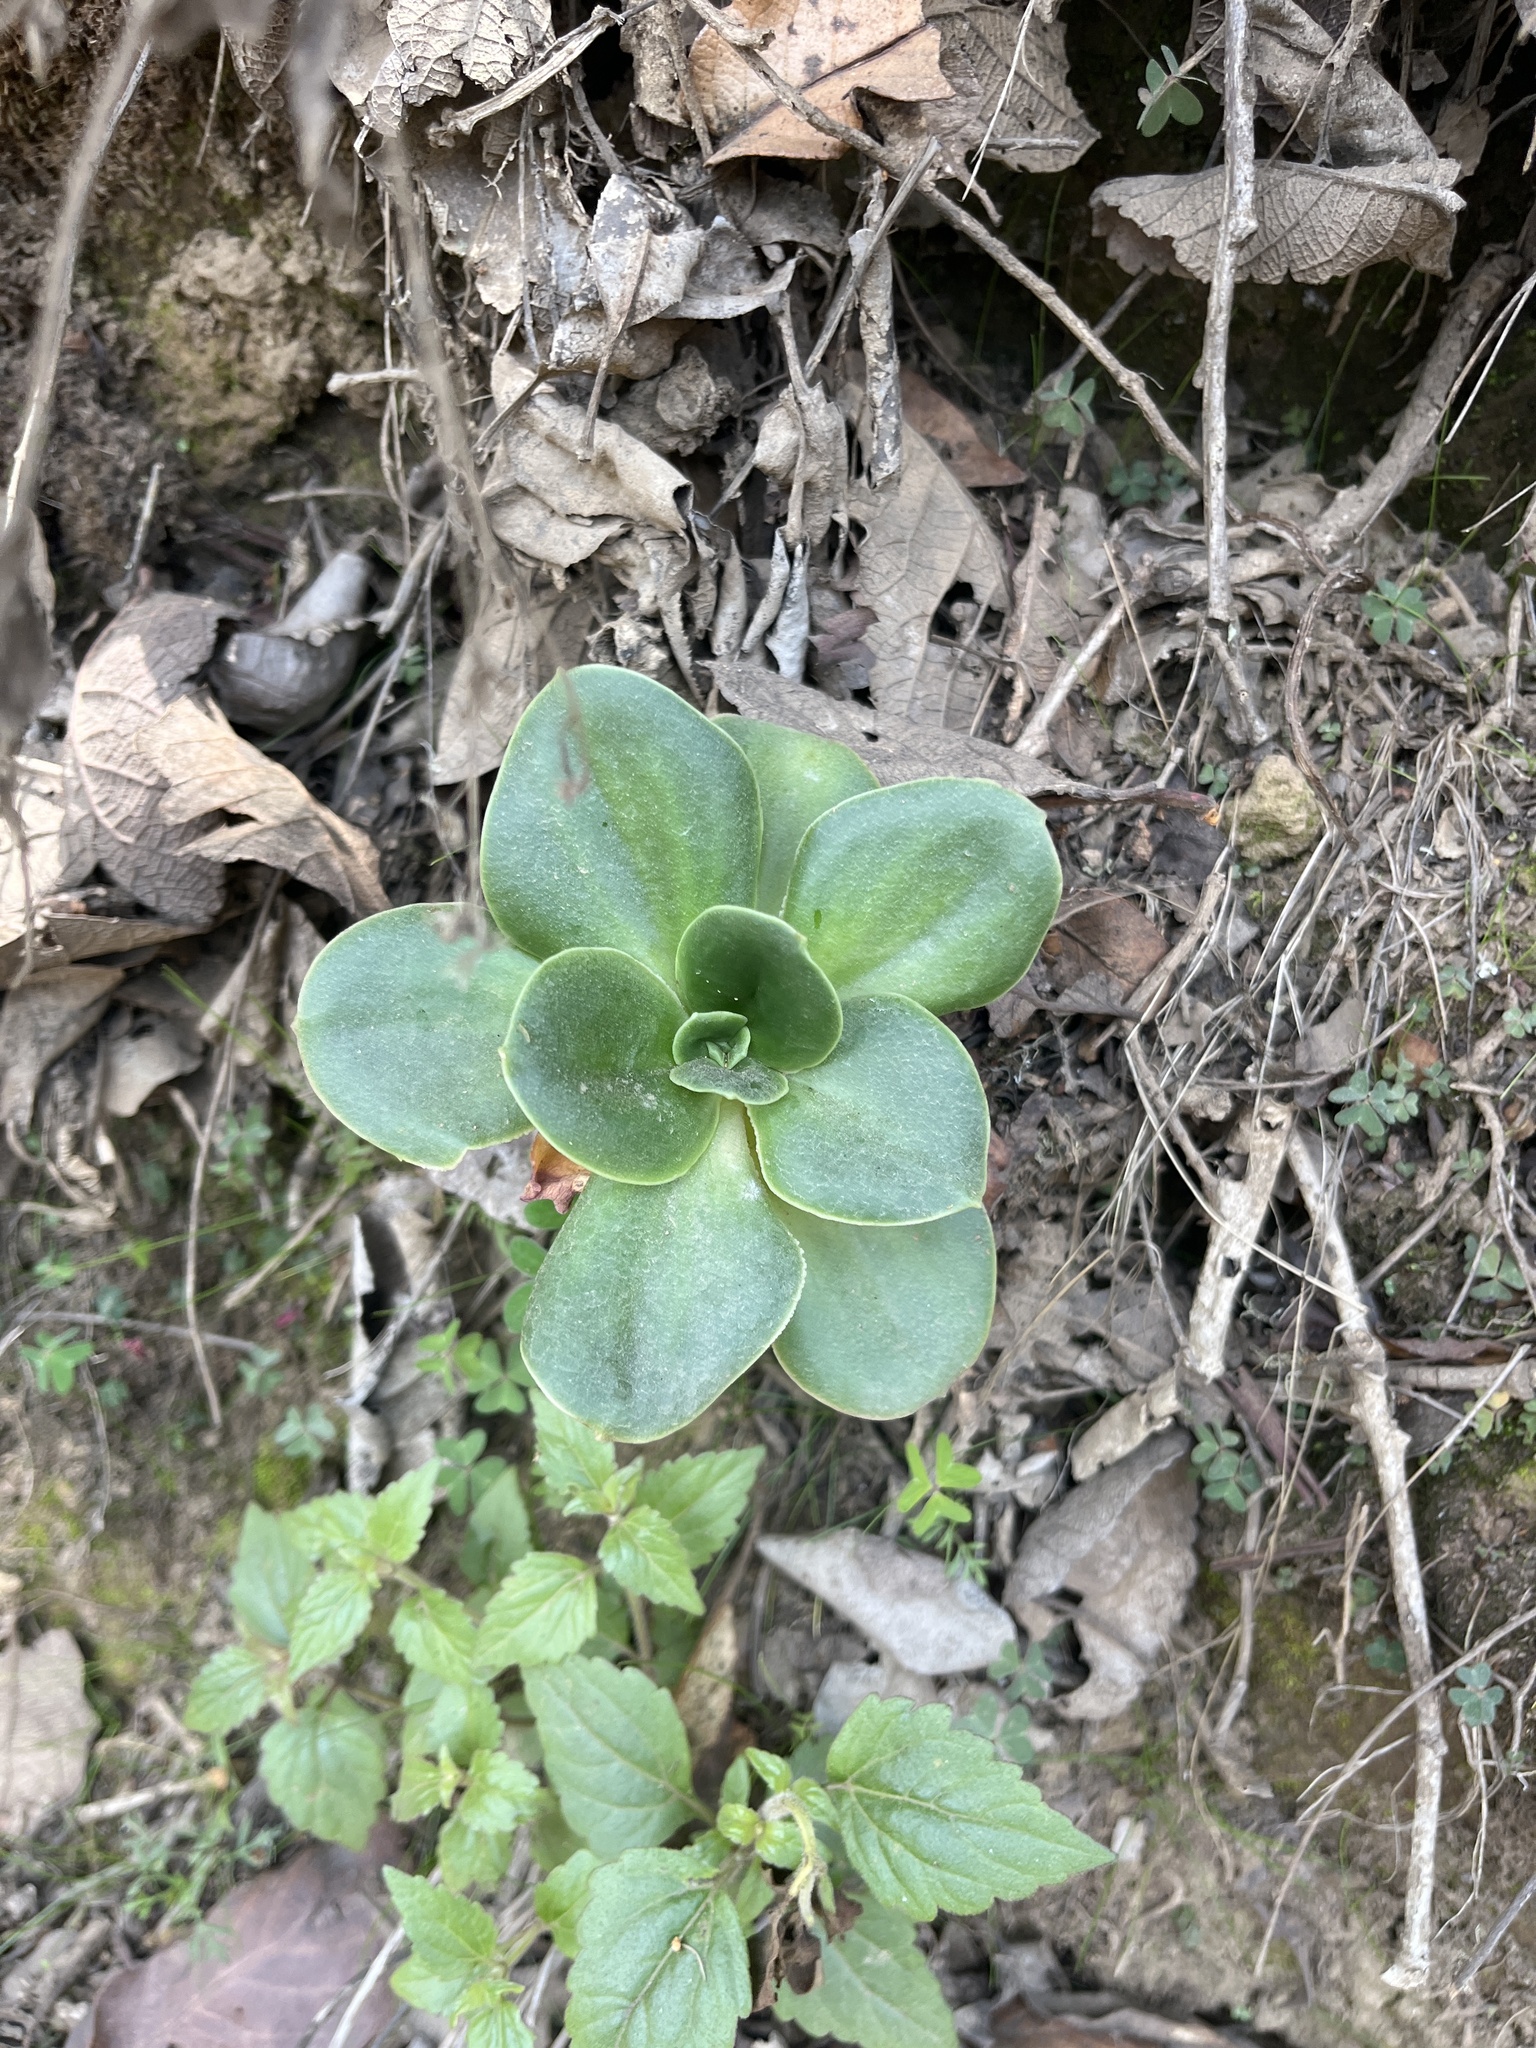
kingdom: Plantae
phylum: Tracheophyta
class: Magnoliopsida
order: Saxifragales
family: Crassulaceae
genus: Echeveria
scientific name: Echeveria montana
